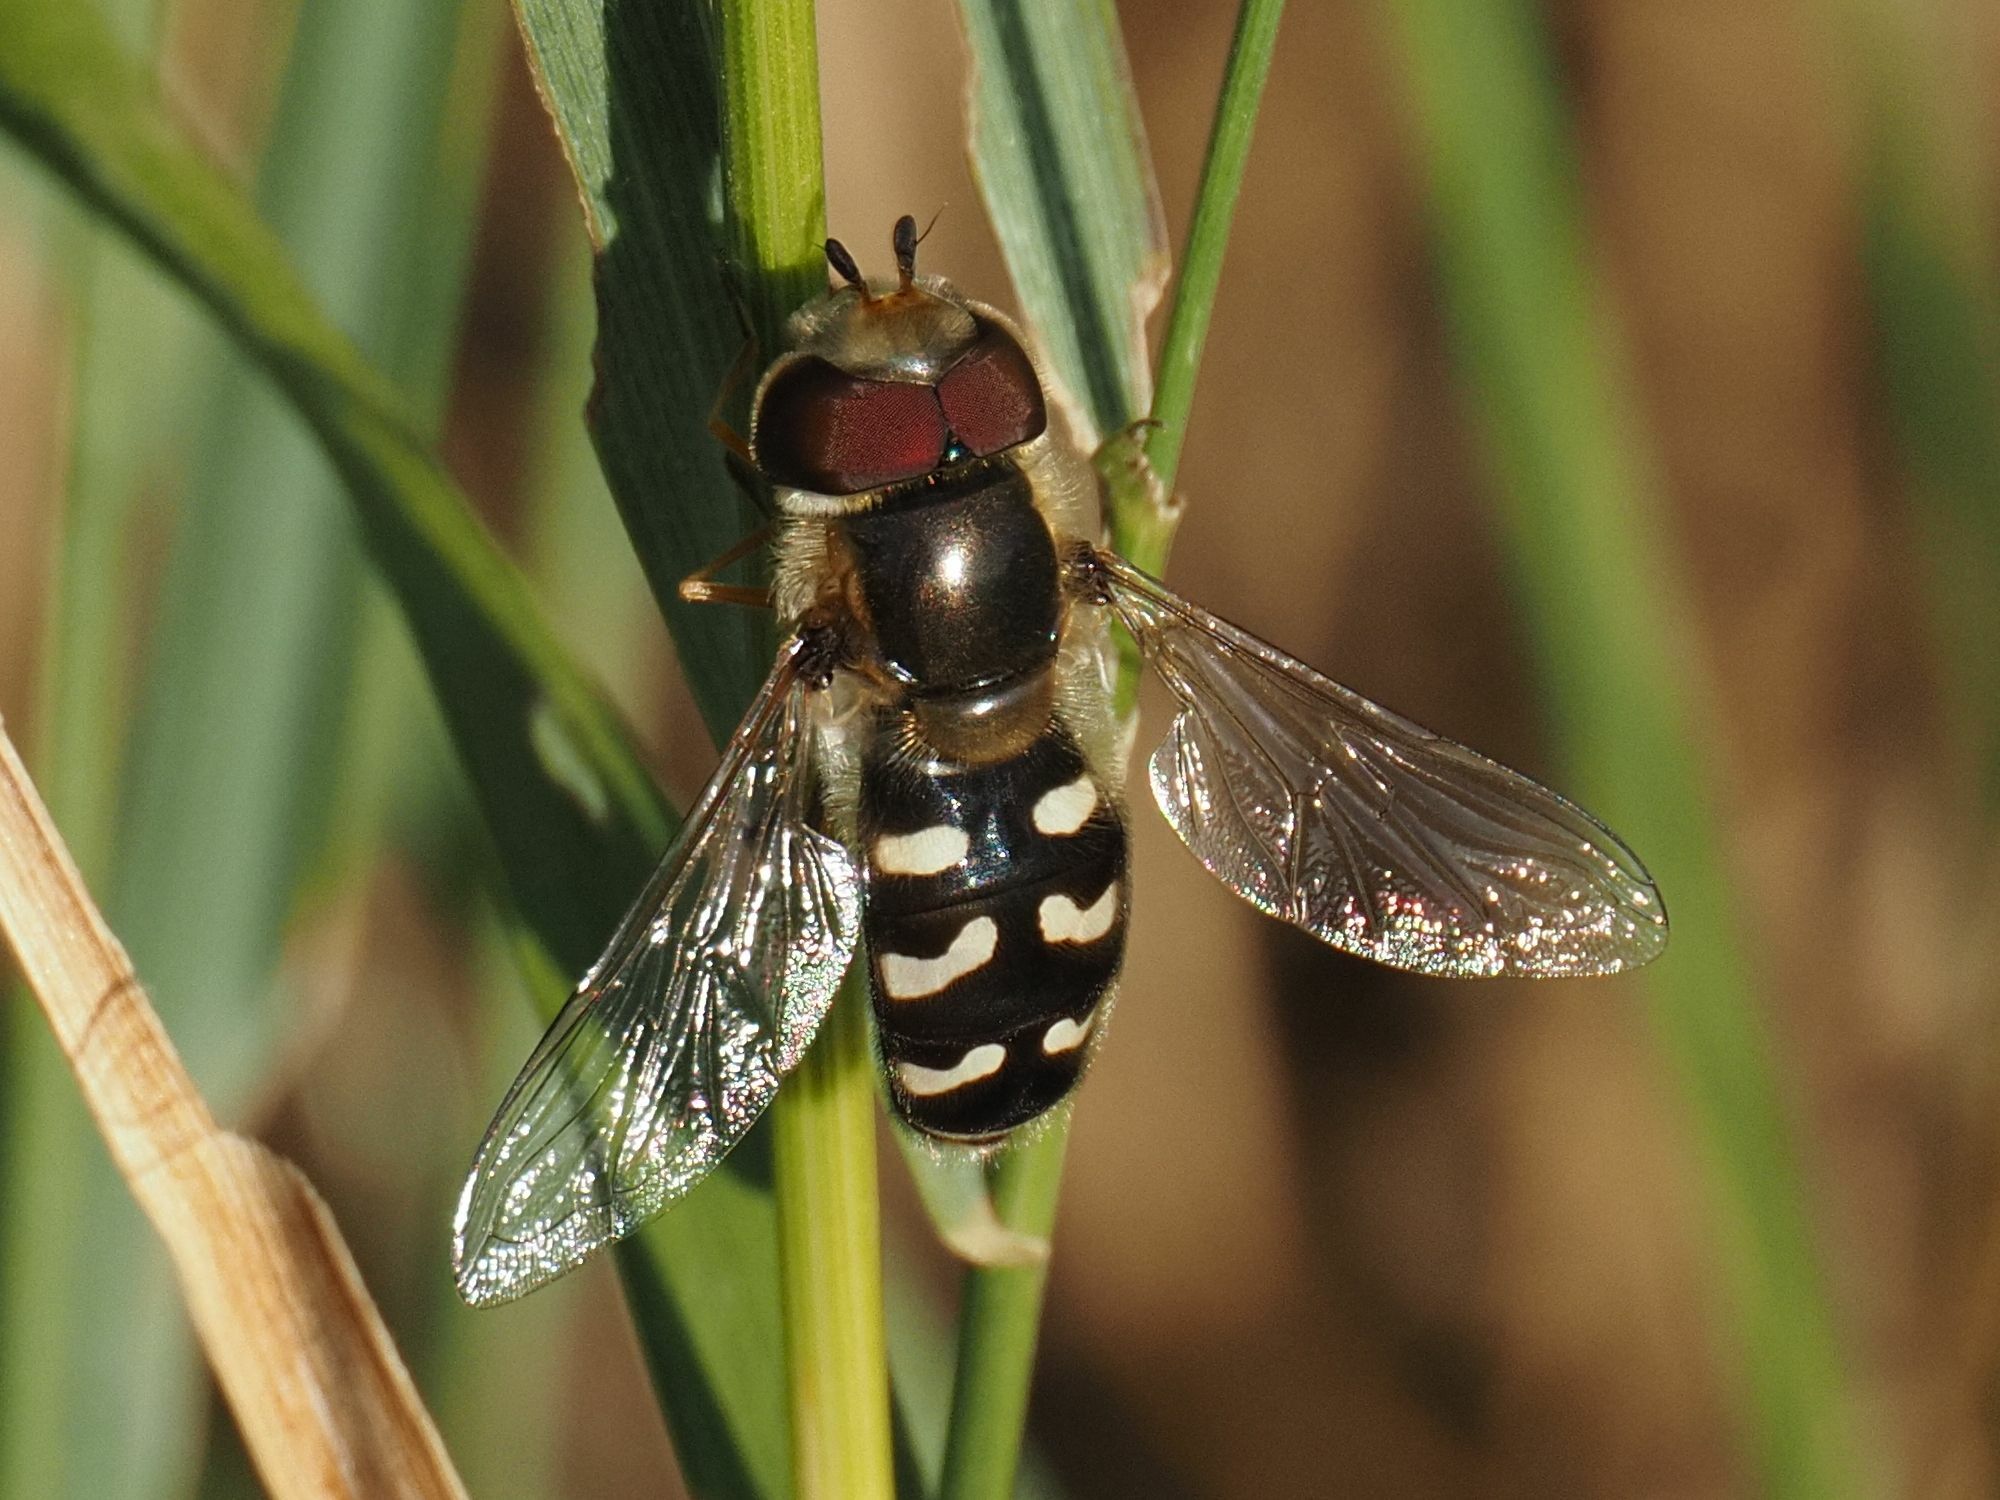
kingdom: Animalia
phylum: Arthropoda
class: Insecta
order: Diptera
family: Syrphidae
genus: Scaeva
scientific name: Scaeva pyrastri
